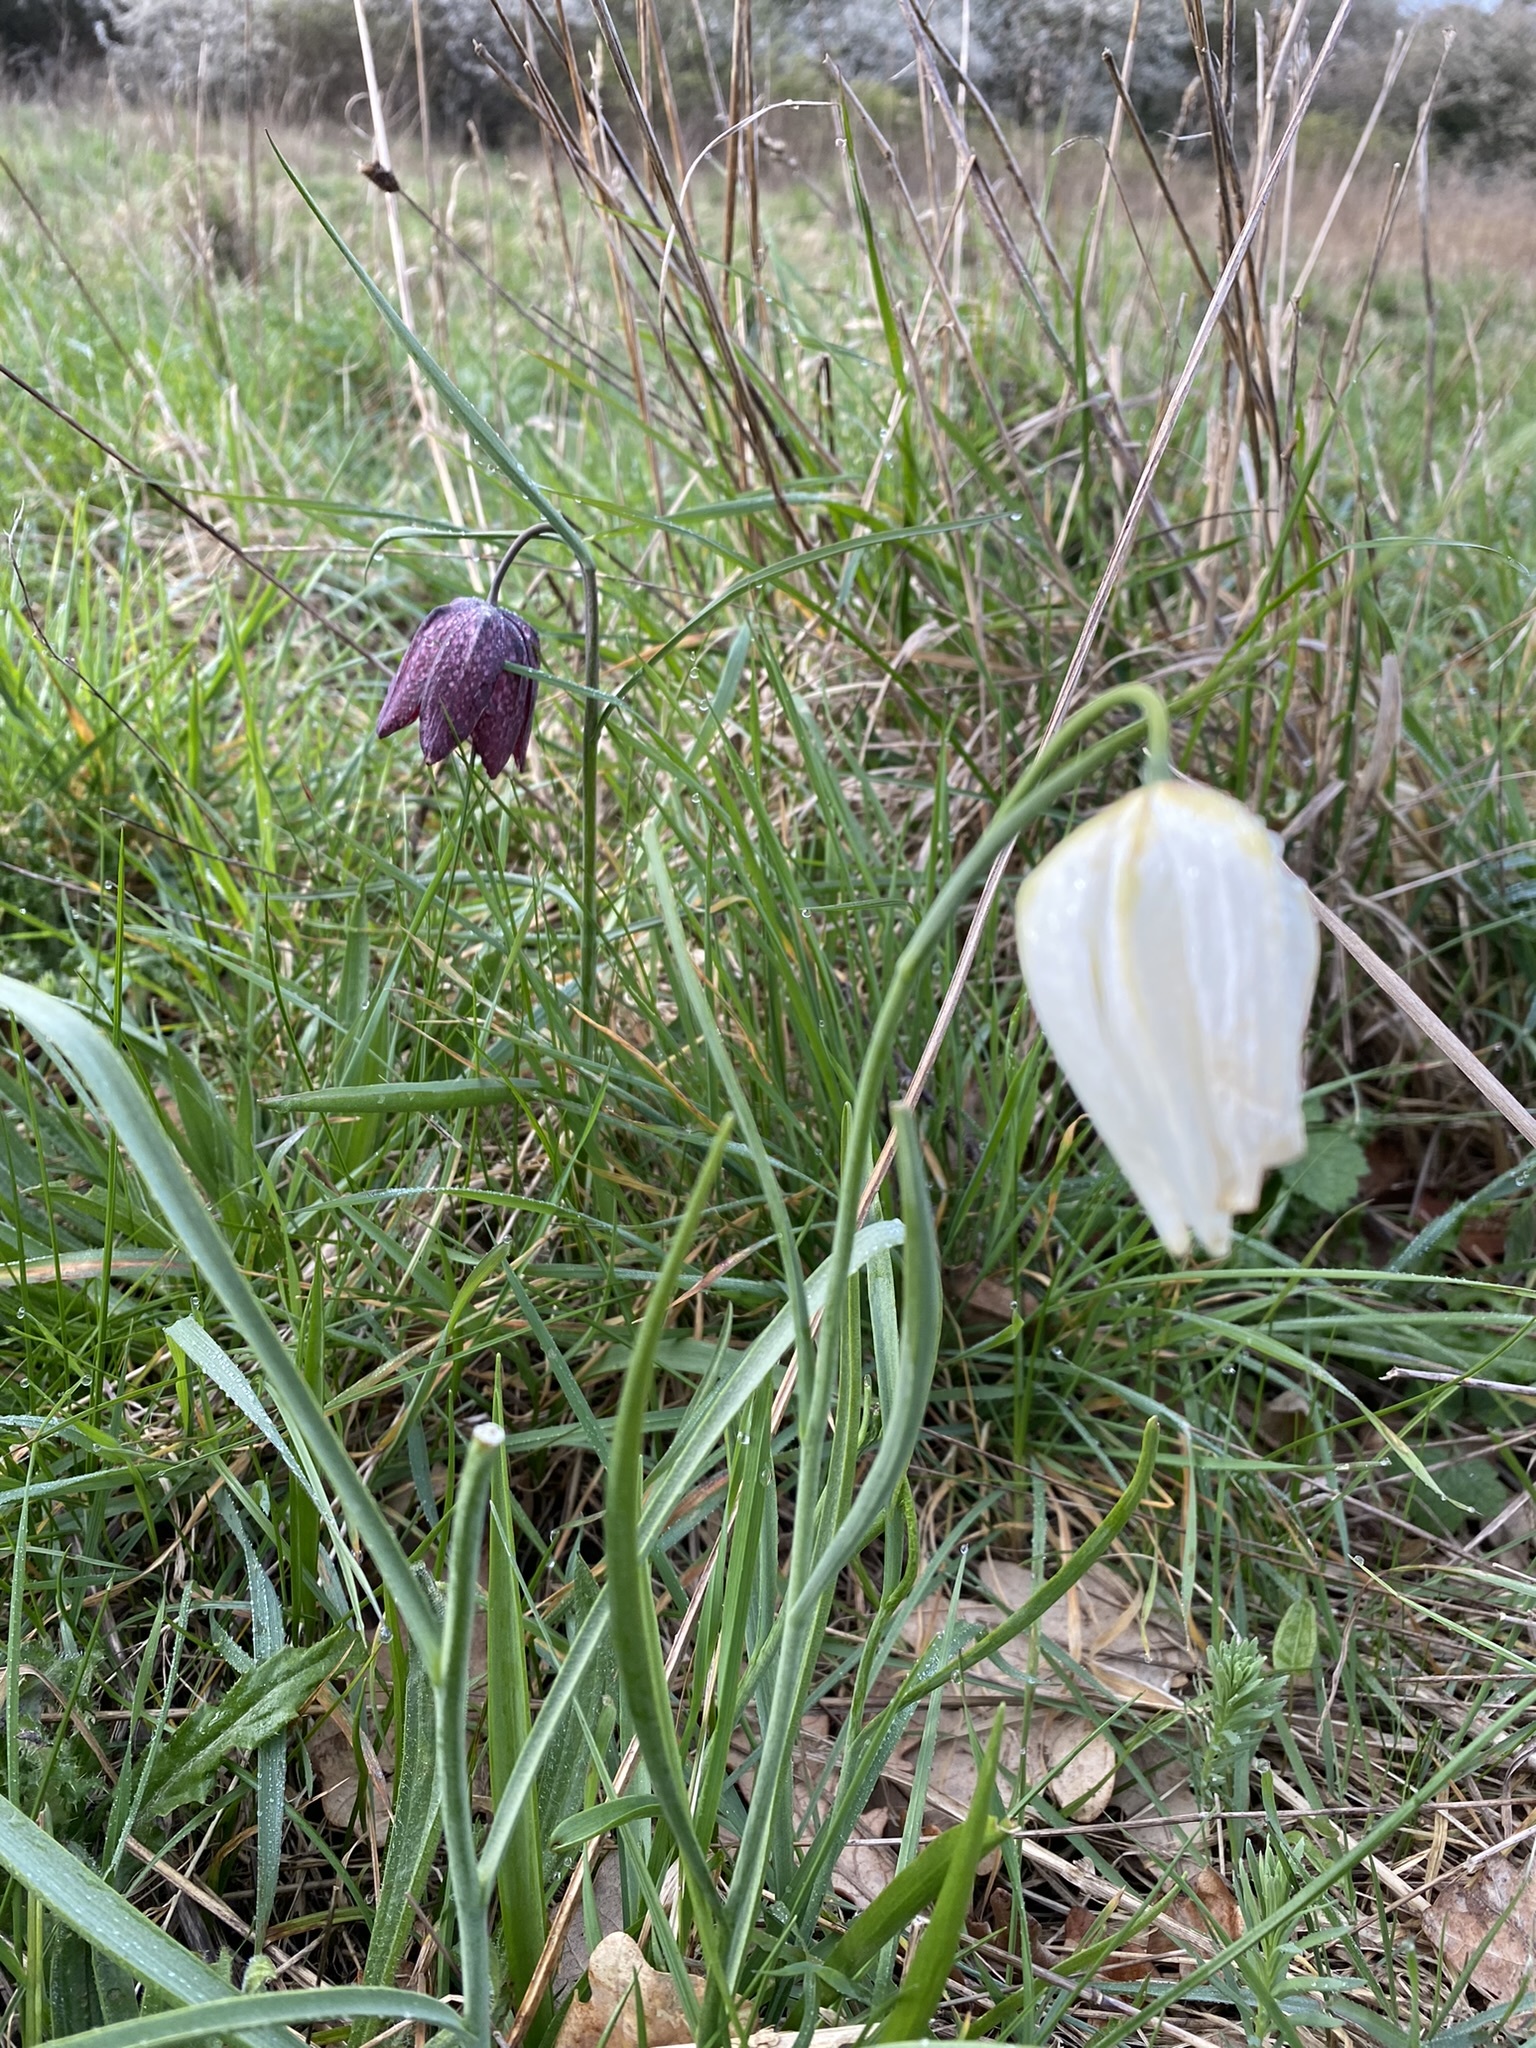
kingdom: Plantae
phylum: Tracheophyta
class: Liliopsida
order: Liliales
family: Liliaceae
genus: Fritillaria
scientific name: Fritillaria meleagris
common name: Fritillary
